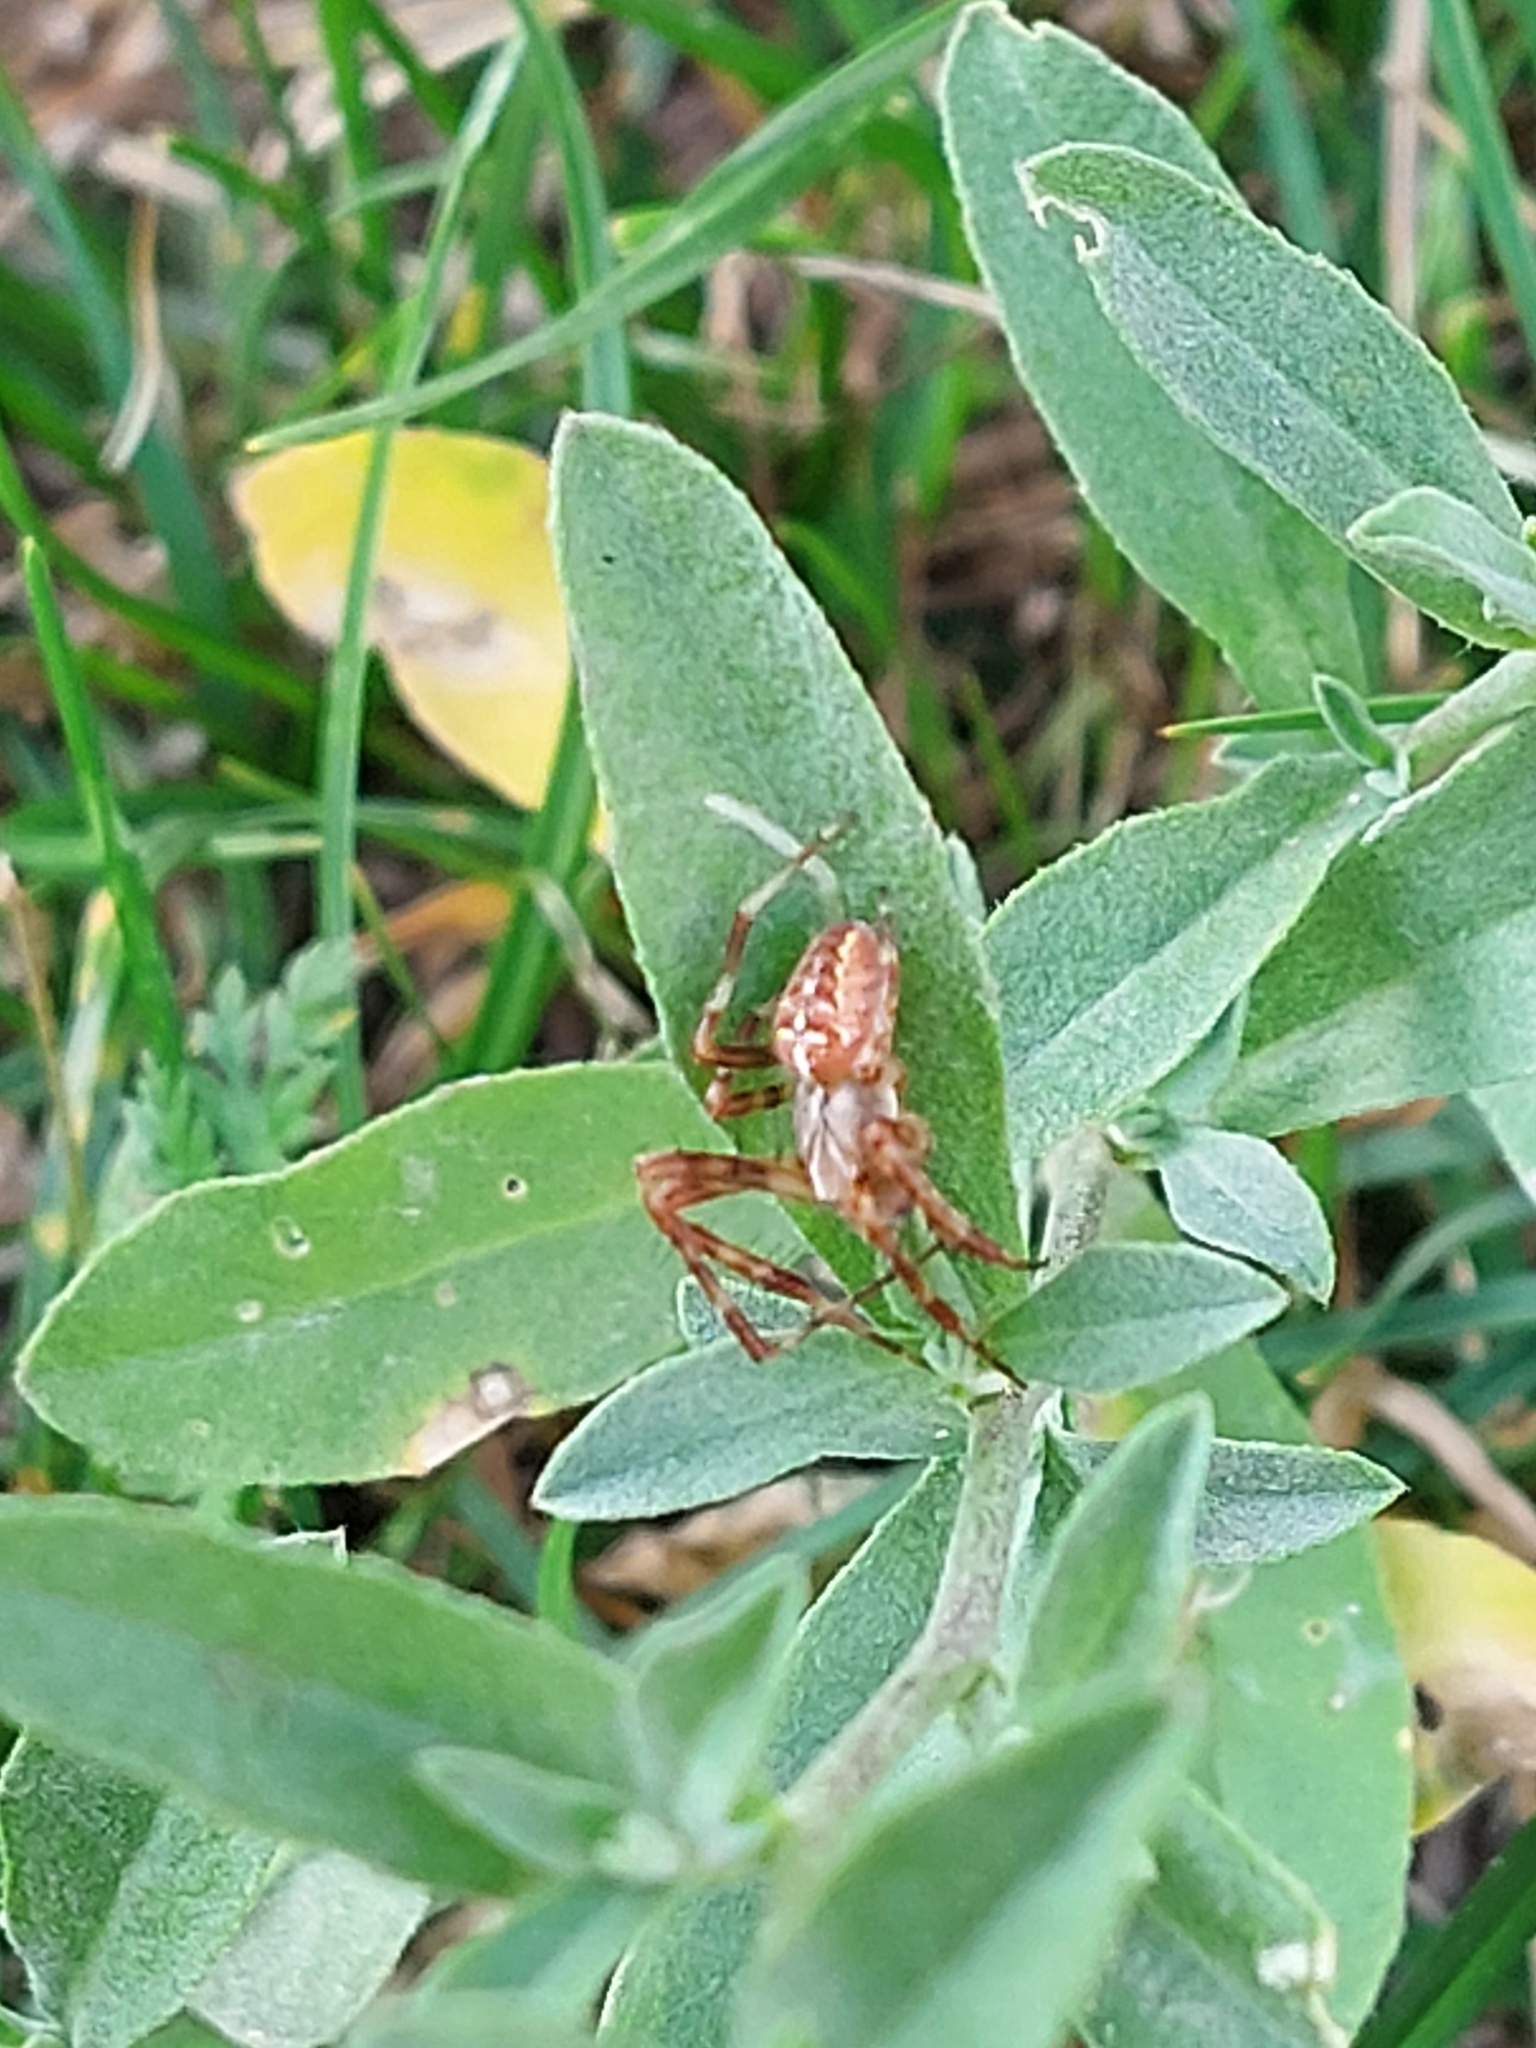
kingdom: Animalia
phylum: Arthropoda
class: Arachnida
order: Araneae
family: Araneidae
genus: Araneus
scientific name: Araneus diadematus
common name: Cross orbweaver
